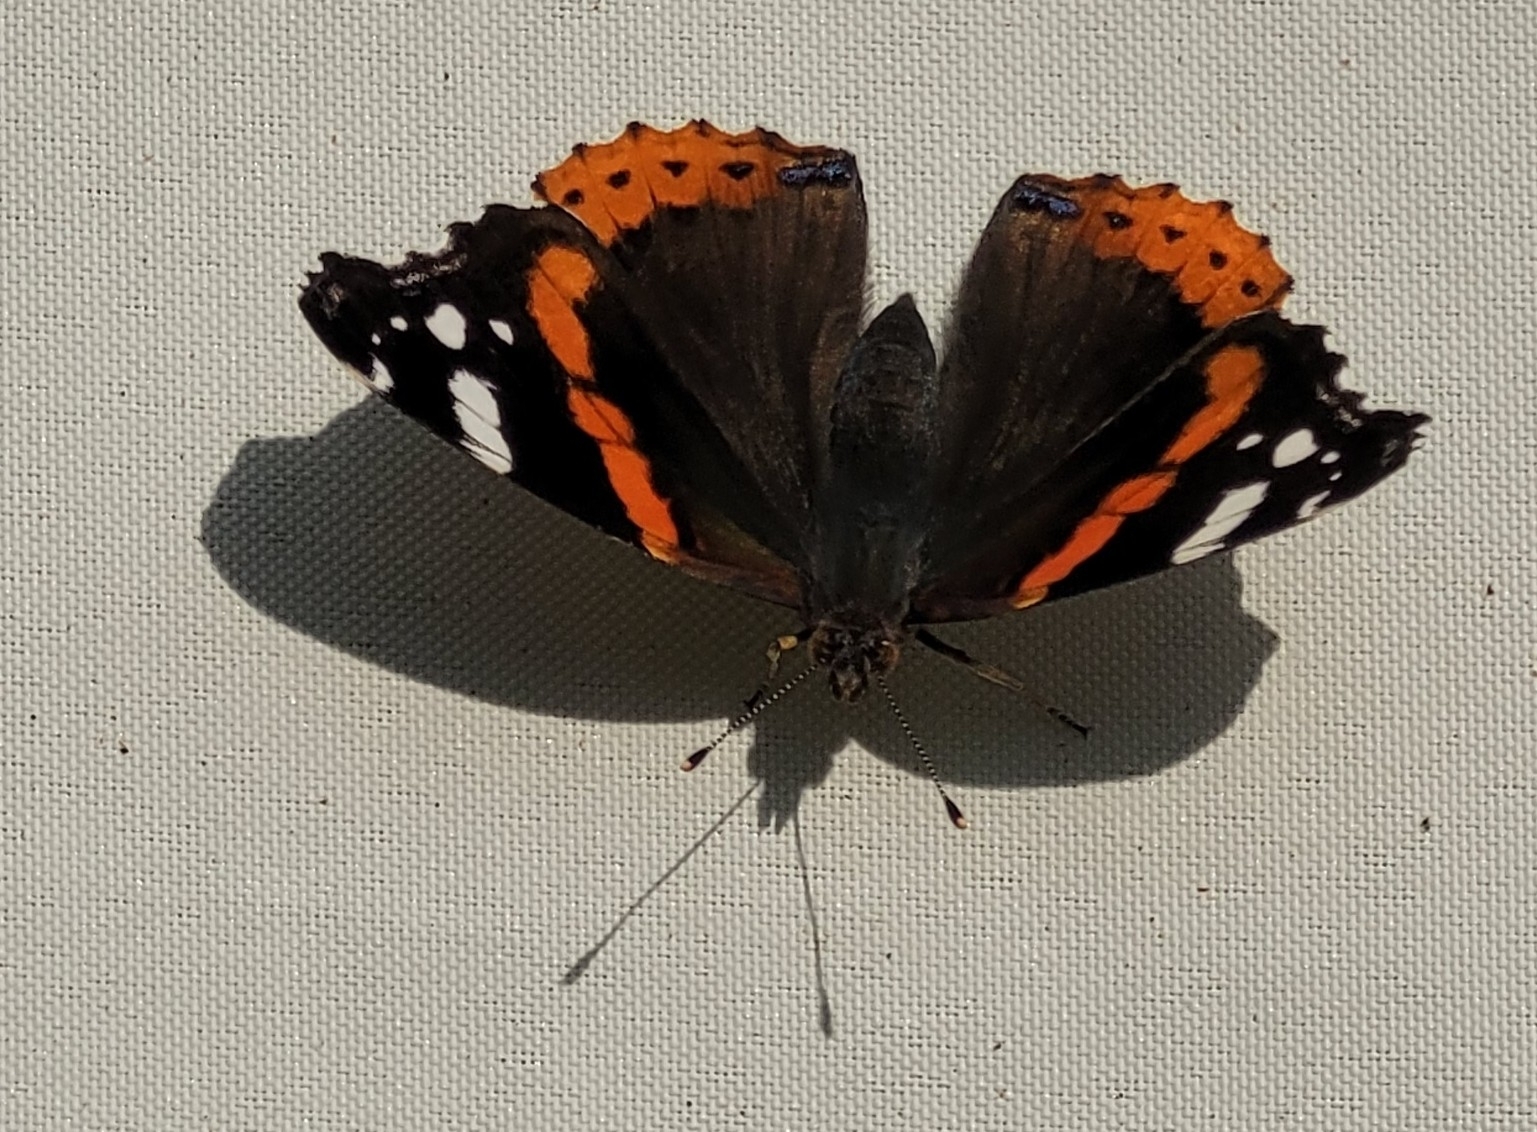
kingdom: Animalia
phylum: Arthropoda
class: Insecta
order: Lepidoptera
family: Nymphalidae
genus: Vanessa
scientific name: Vanessa atalanta
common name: Red admiral
